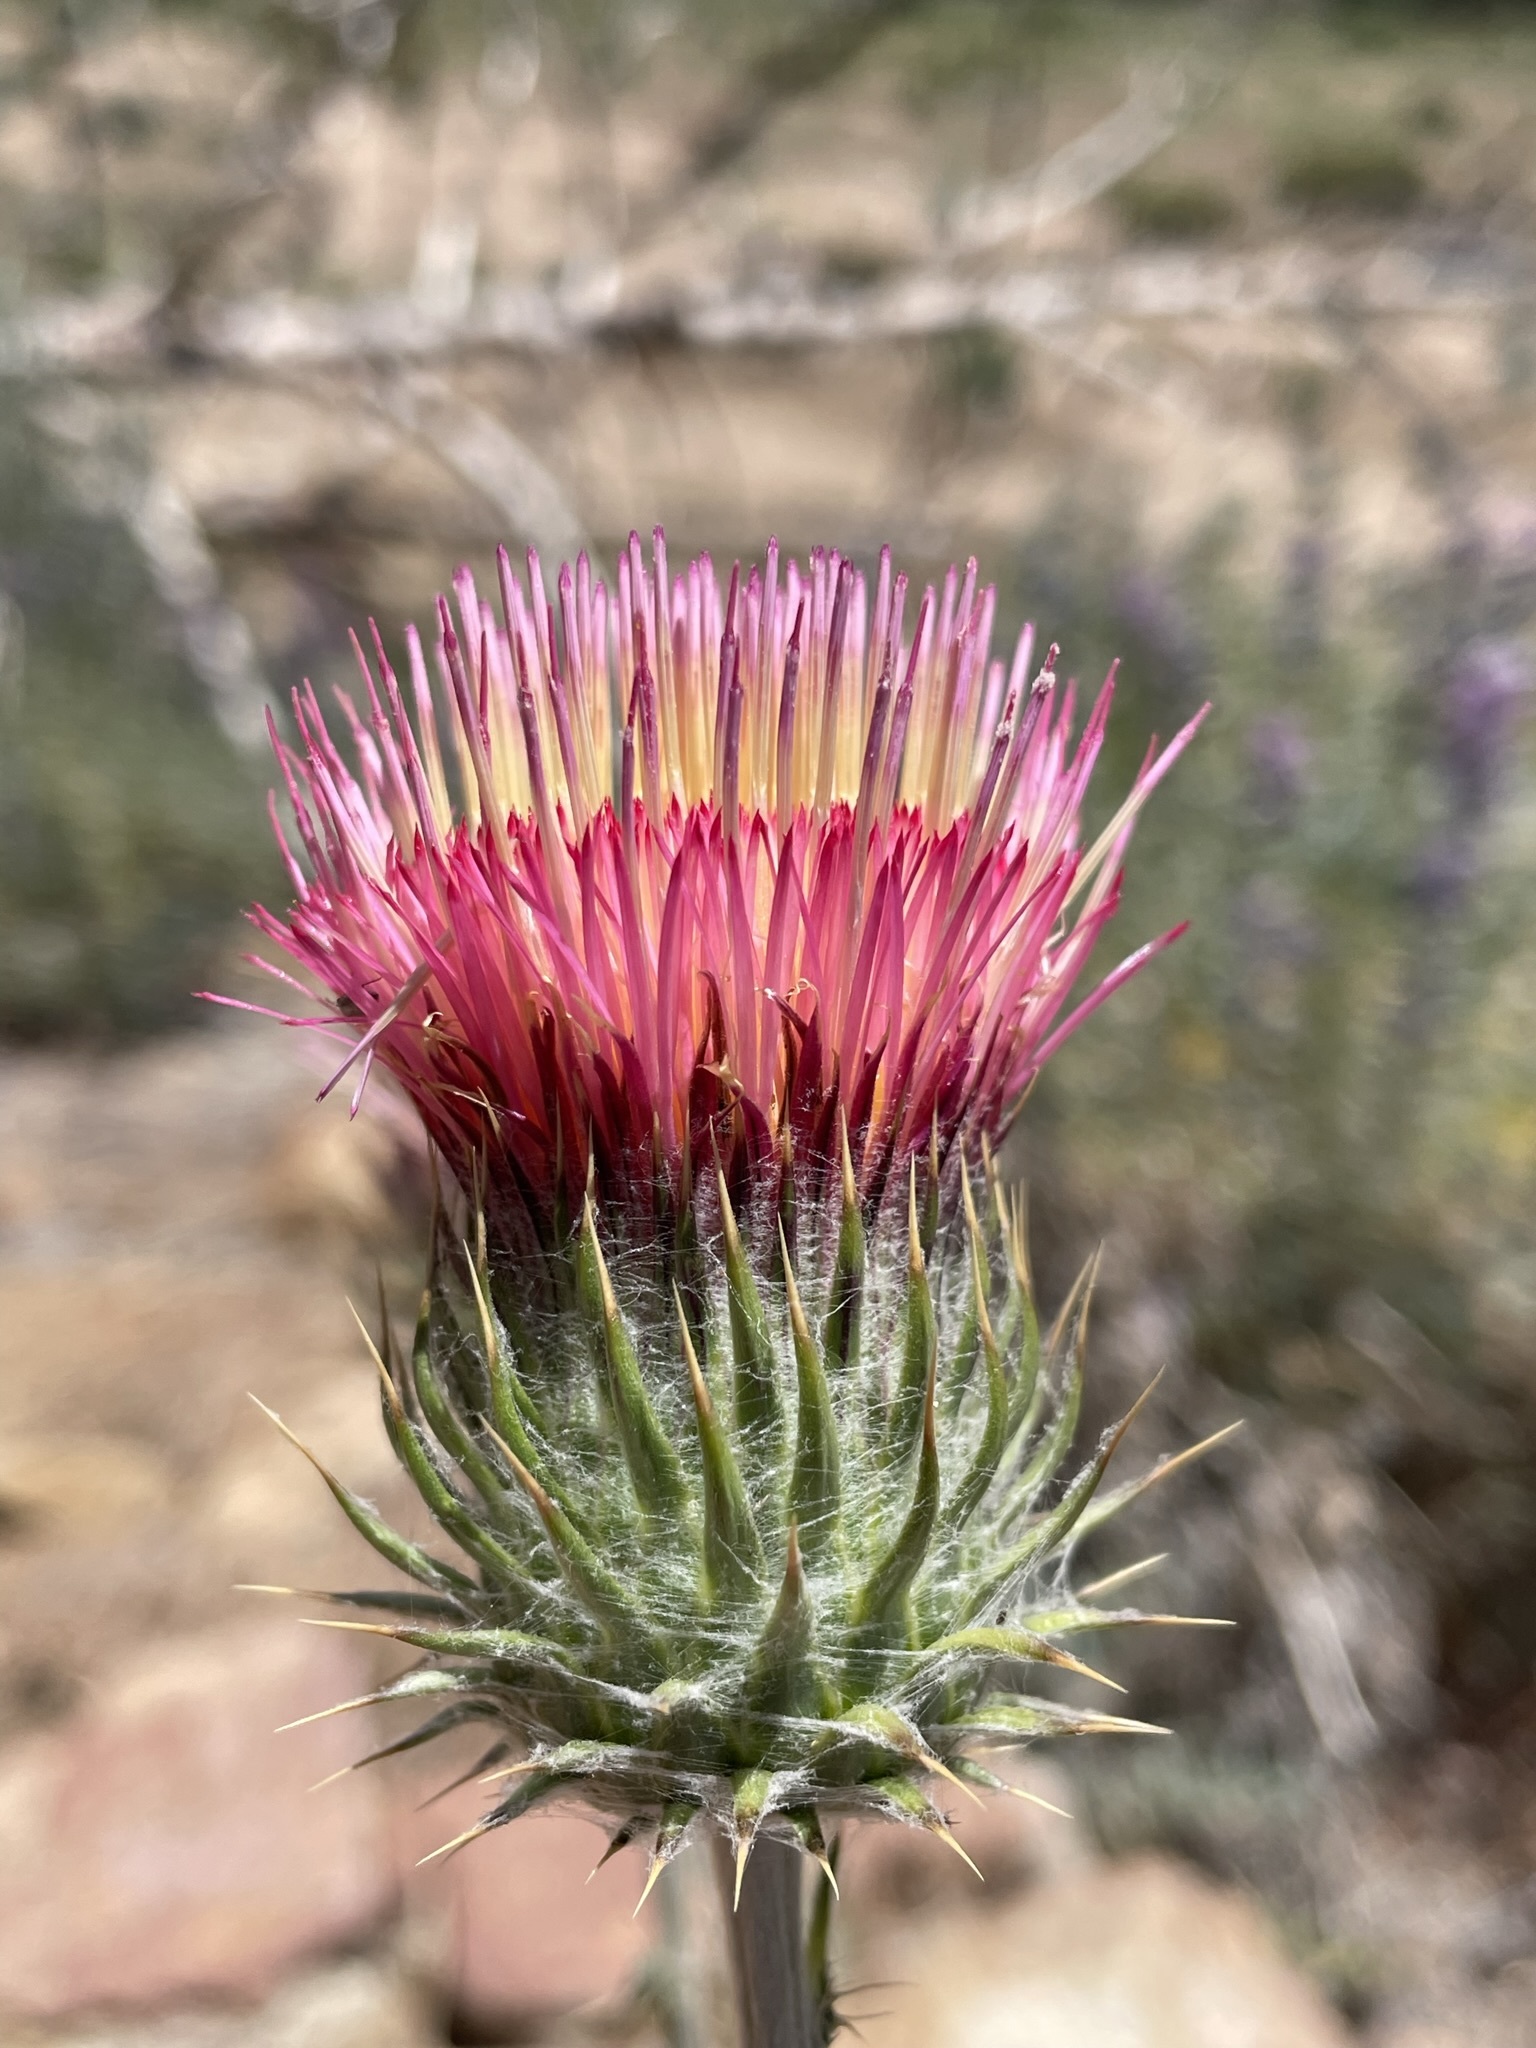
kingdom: Plantae
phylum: Tracheophyta
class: Magnoliopsida
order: Asterales
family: Asteraceae
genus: Cirsium
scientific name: Cirsium occidentale
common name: Western thistle
